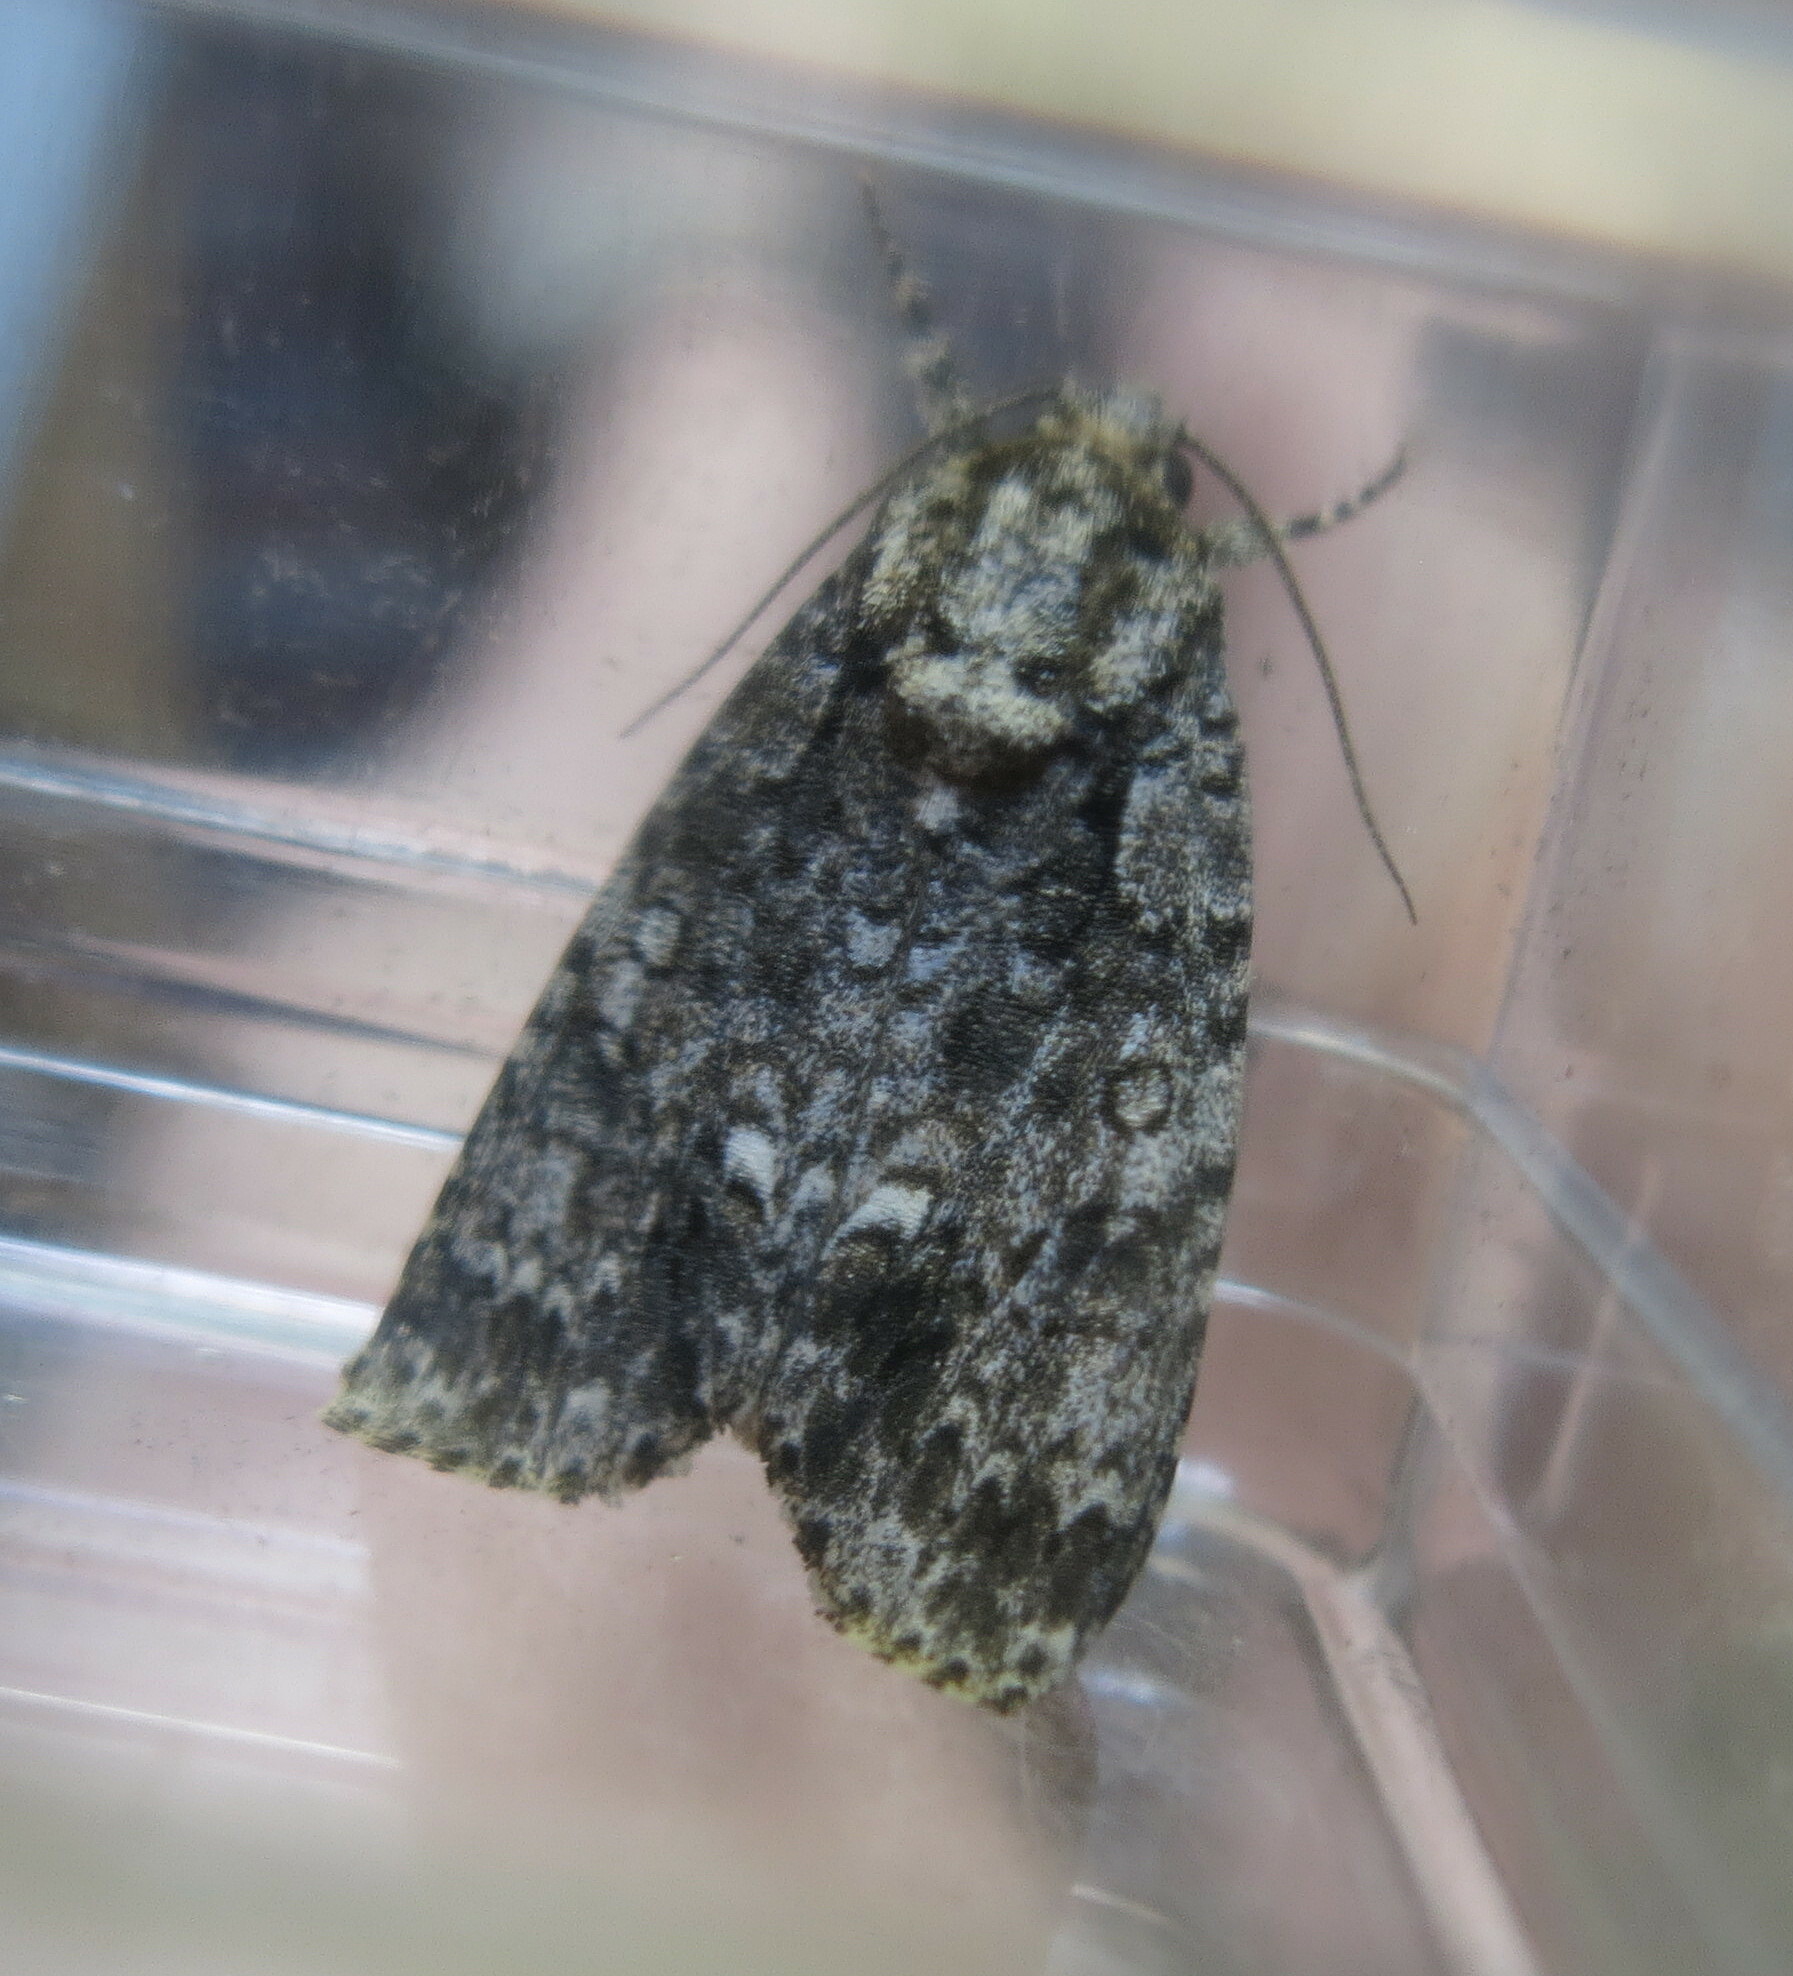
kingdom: Animalia
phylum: Arthropoda
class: Insecta
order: Lepidoptera
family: Noctuidae
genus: Acronicta
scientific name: Acronicta rumicis
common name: Knot grass
